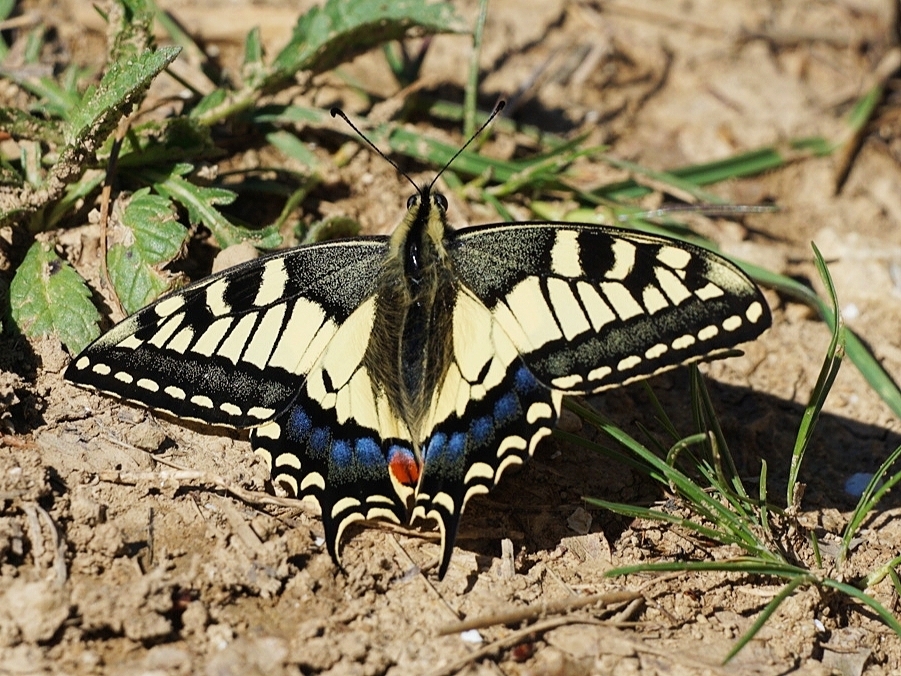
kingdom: Animalia
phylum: Arthropoda
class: Insecta
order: Lepidoptera
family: Papilionidae
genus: Papilio
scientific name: Papilio machaon
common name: Swallowtail
